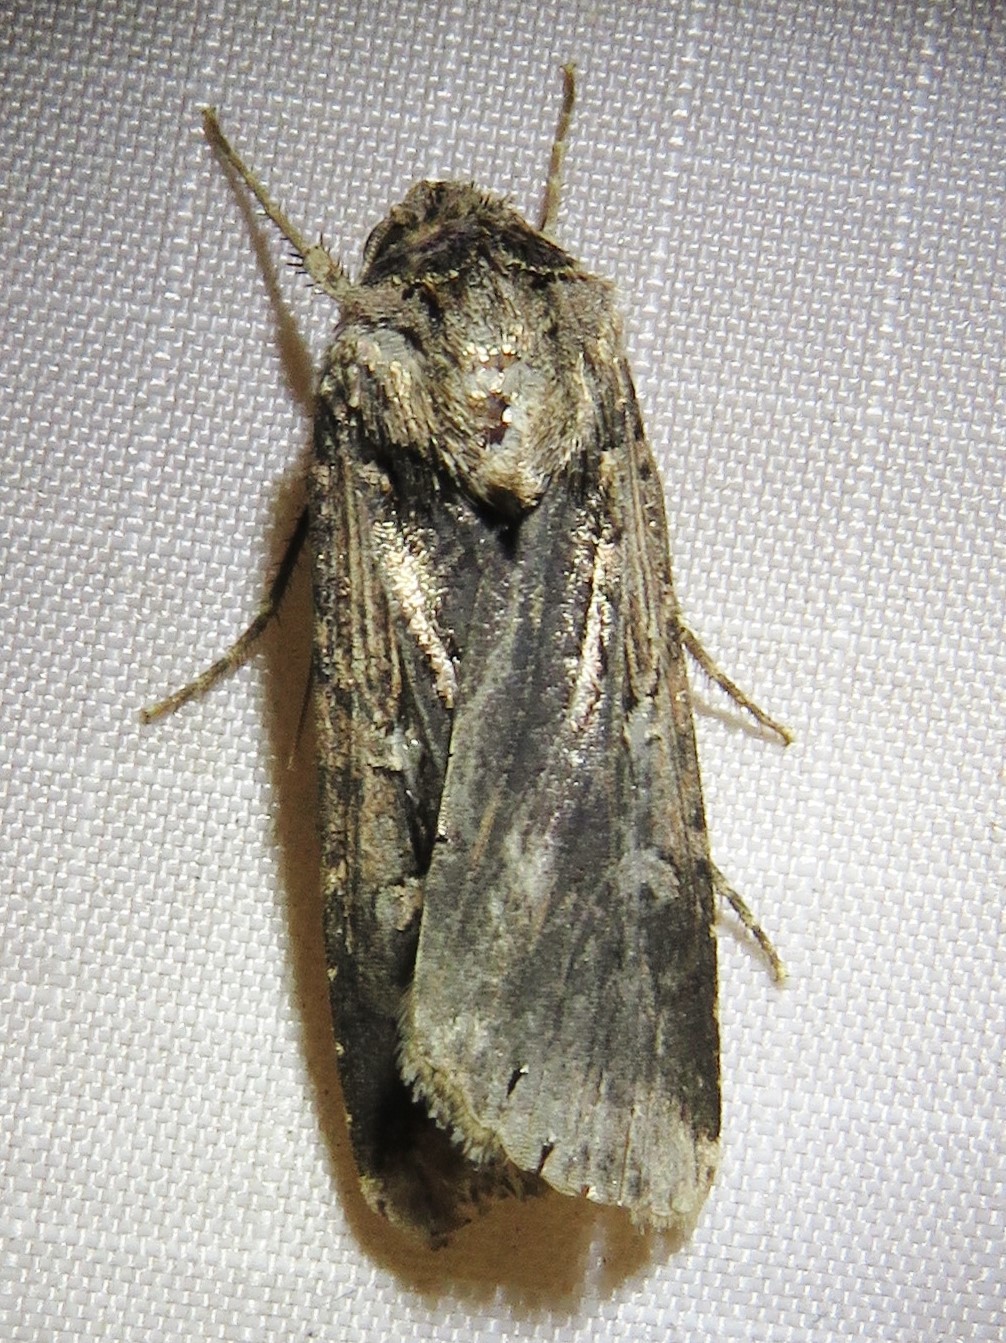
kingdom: Animalia
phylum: Arthropoda
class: Insecta
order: Lepidoptera
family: Noctuidae
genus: Feltia
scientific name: Feltia subterranea
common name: Granulate cutworm
